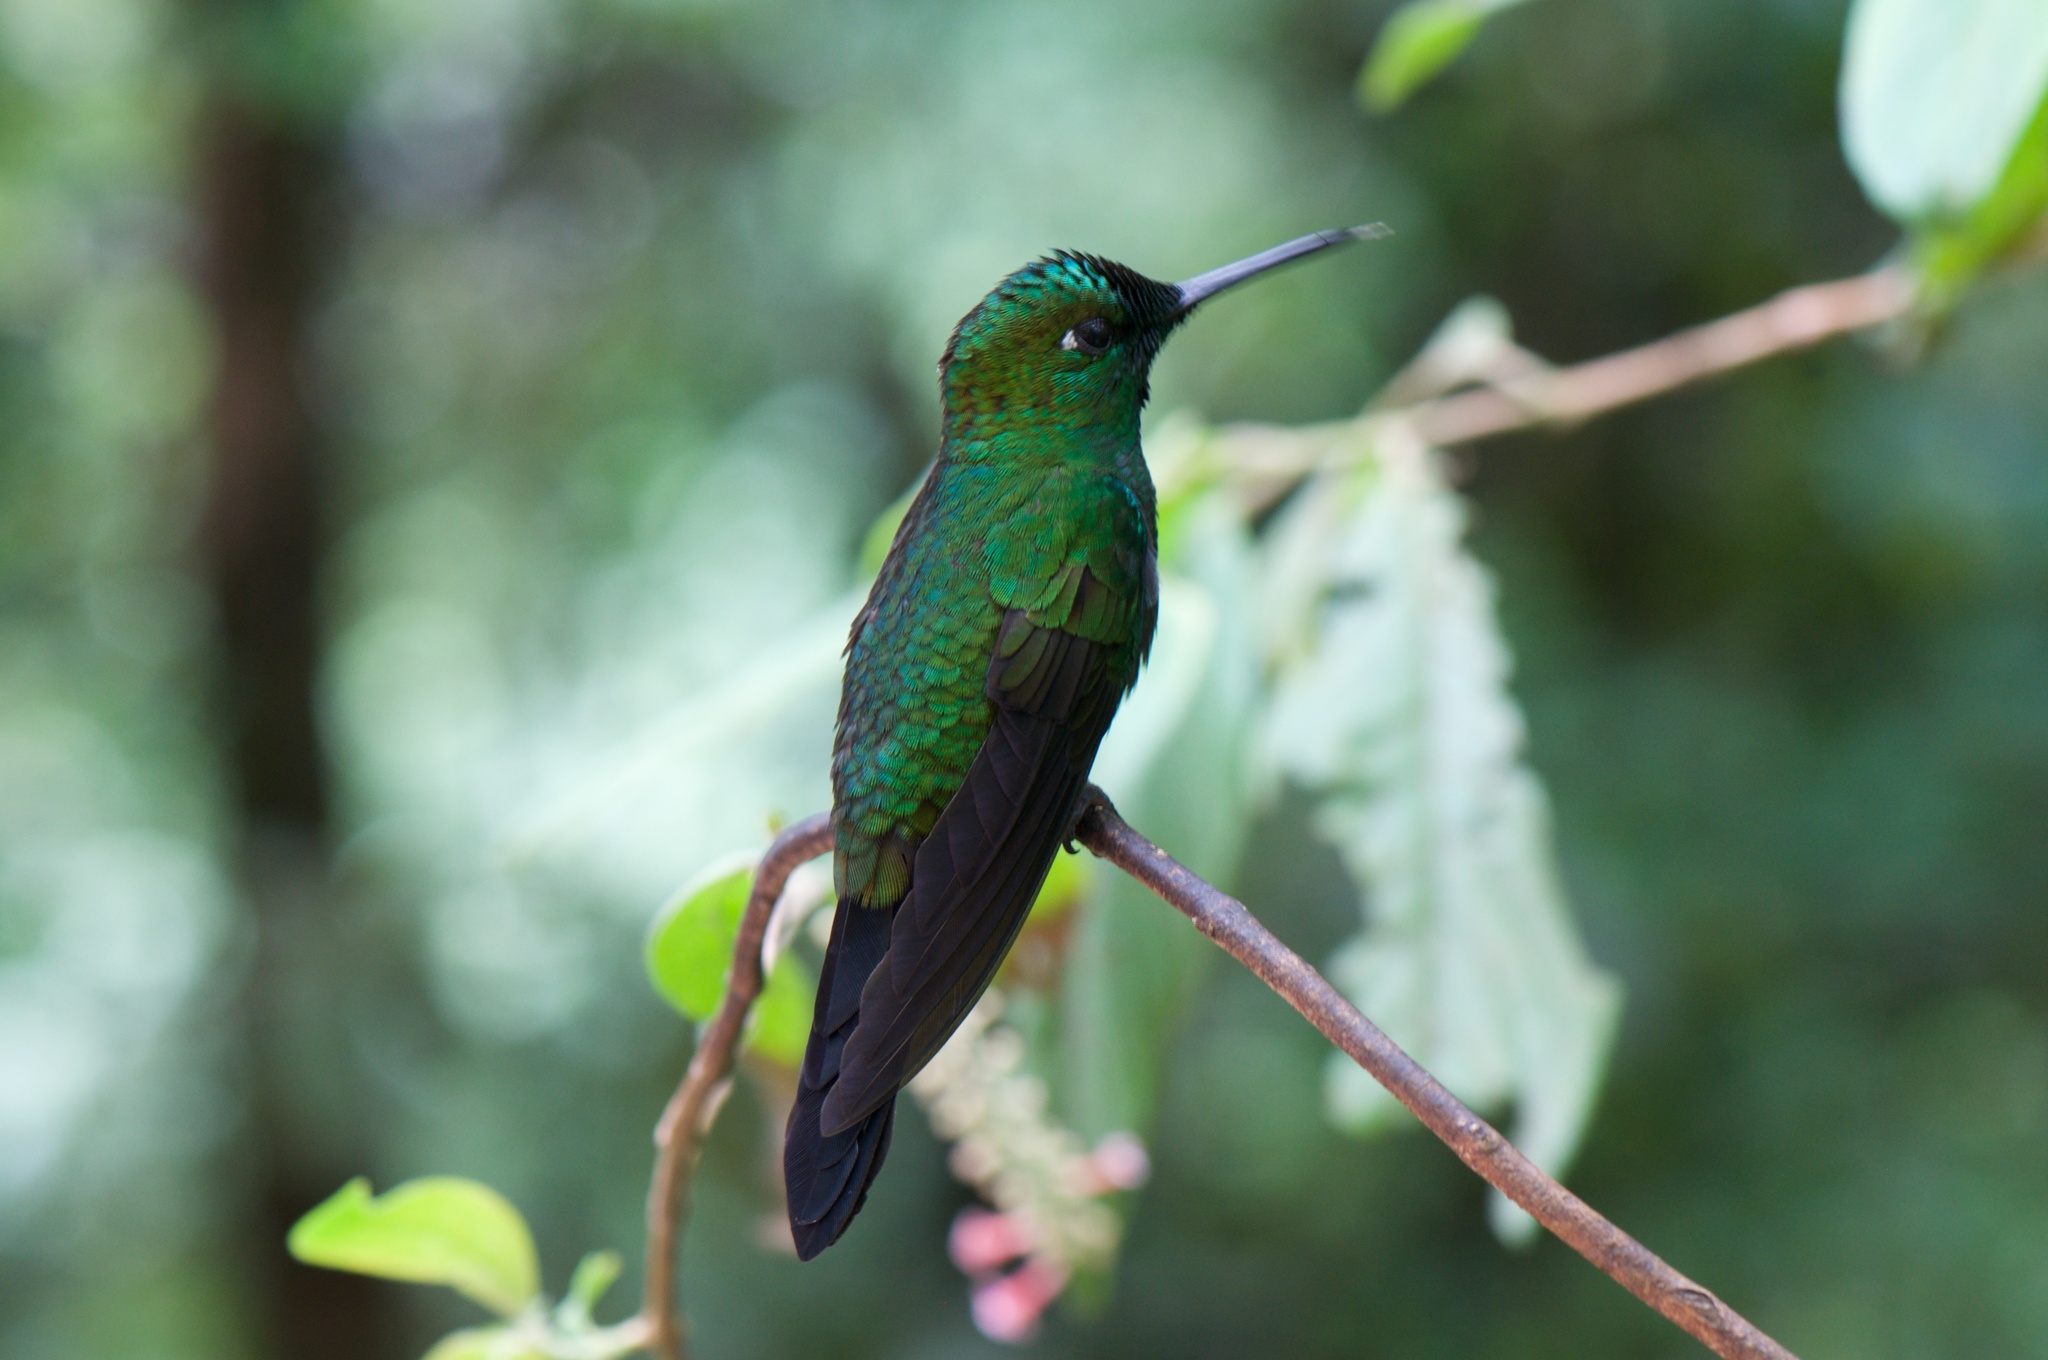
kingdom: Animalia
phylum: Chordata
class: Aves
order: Apodiformes
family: Trochilidae
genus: Heliodoxa
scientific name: Heliodoxa jacula
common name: Green-crowned brilliant
